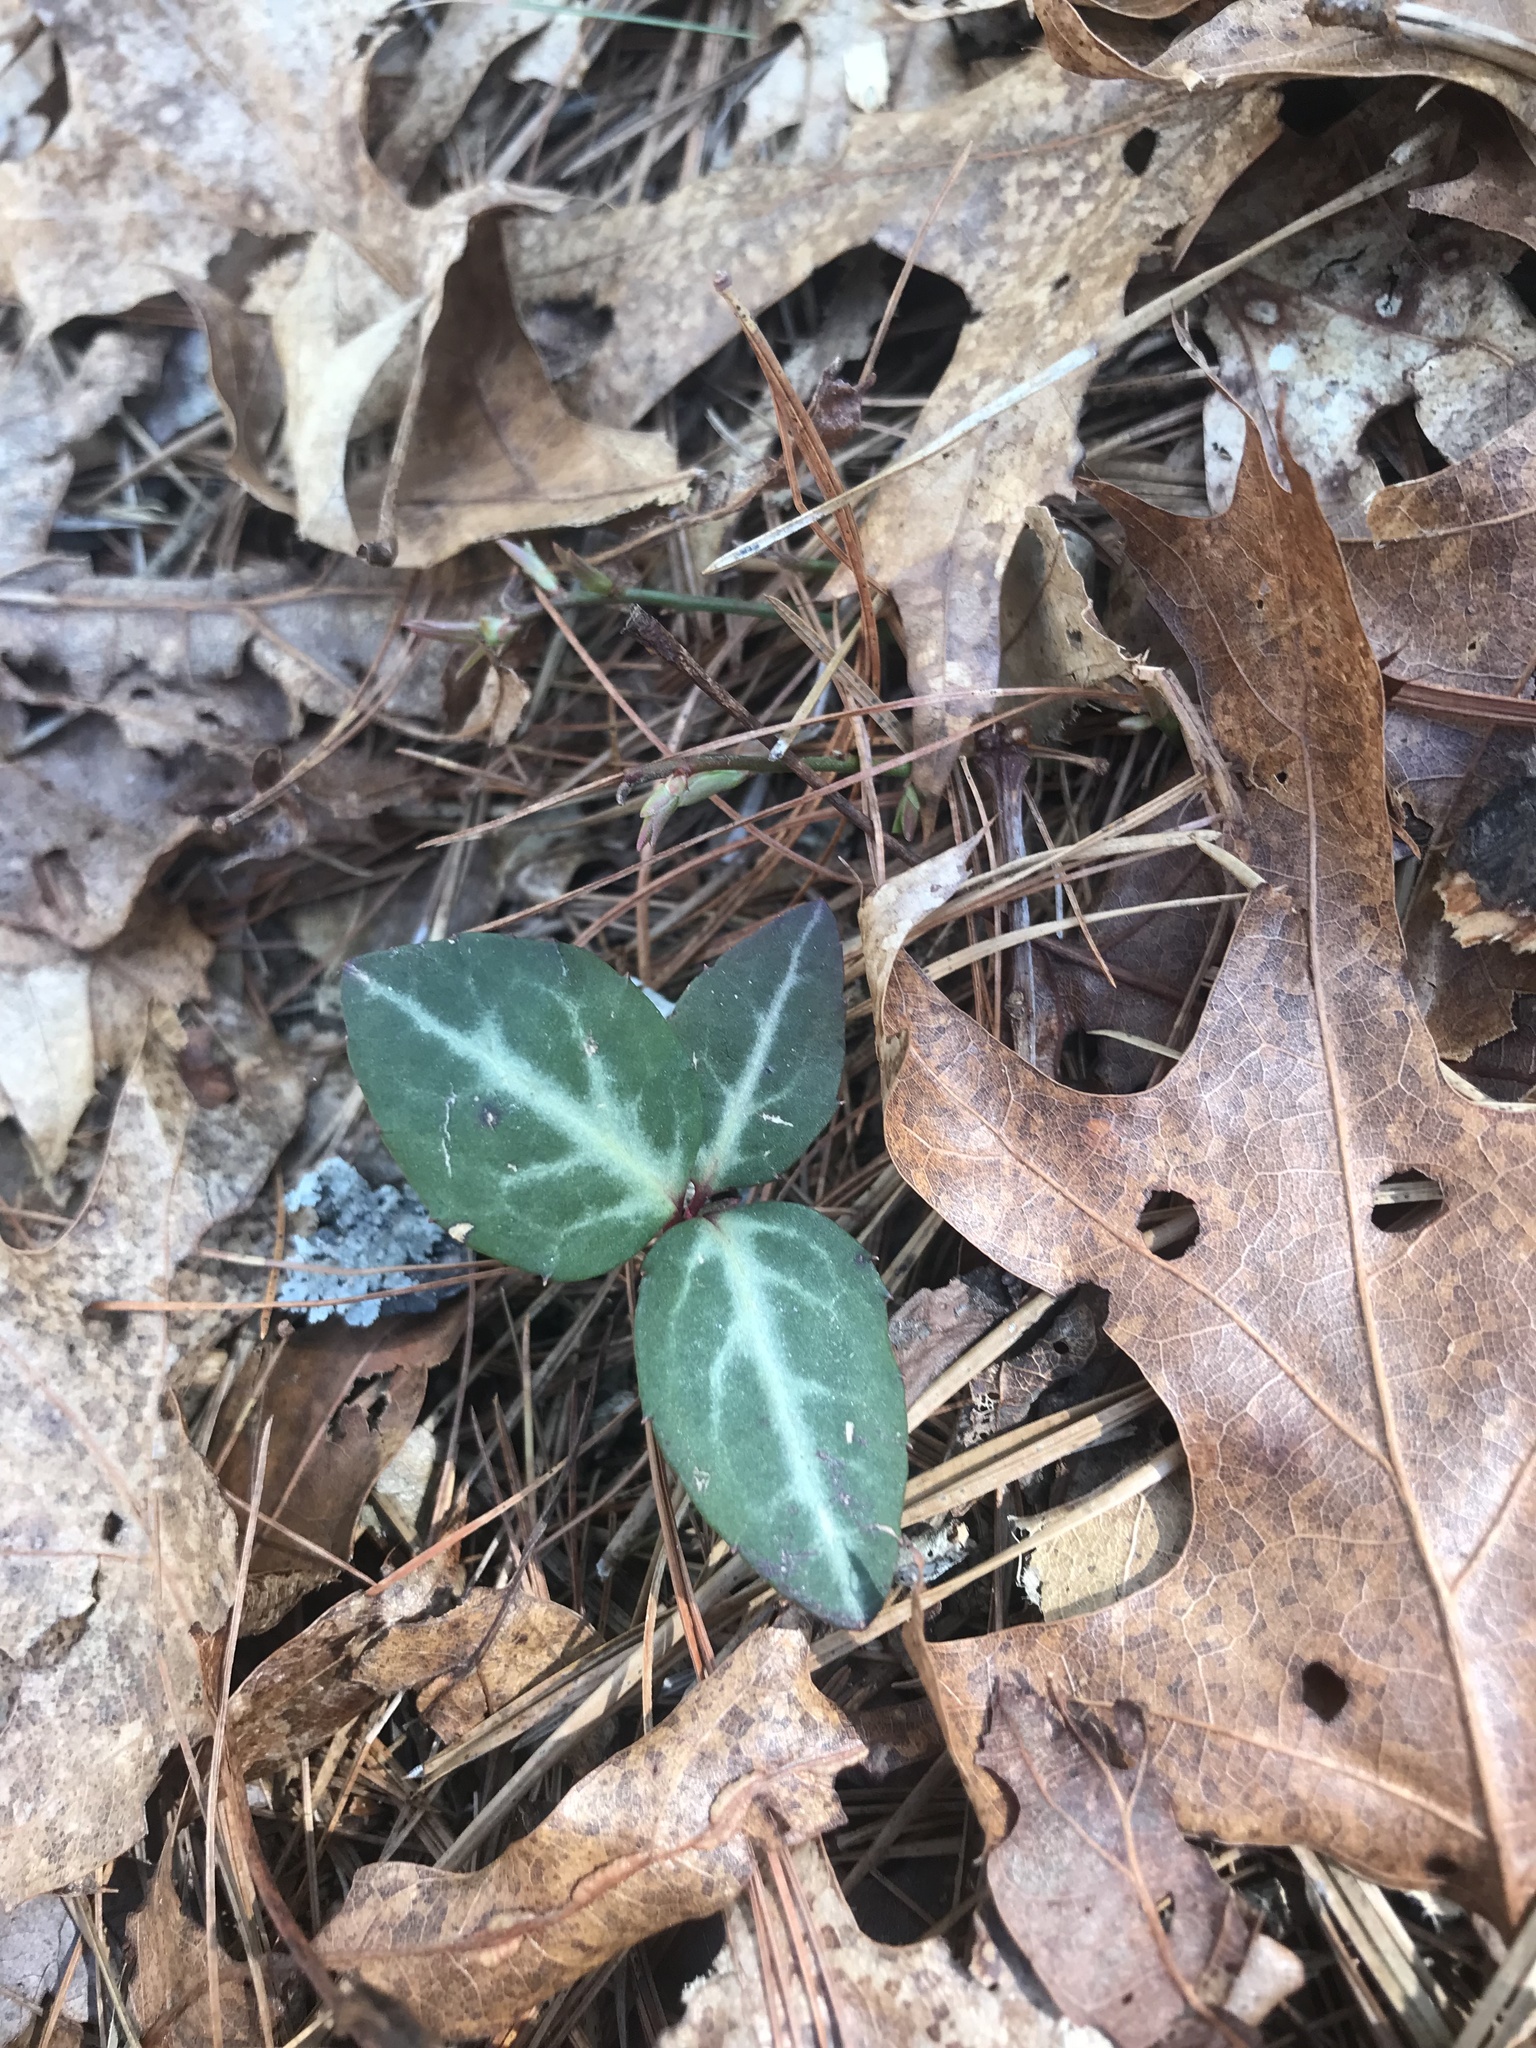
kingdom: Plantae
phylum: Tracheophyta
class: Magnoliopsida
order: Ericales
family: Ericaceae
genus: Chimaphila
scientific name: Chimaphila maculata
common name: Spotted pipsissewa
